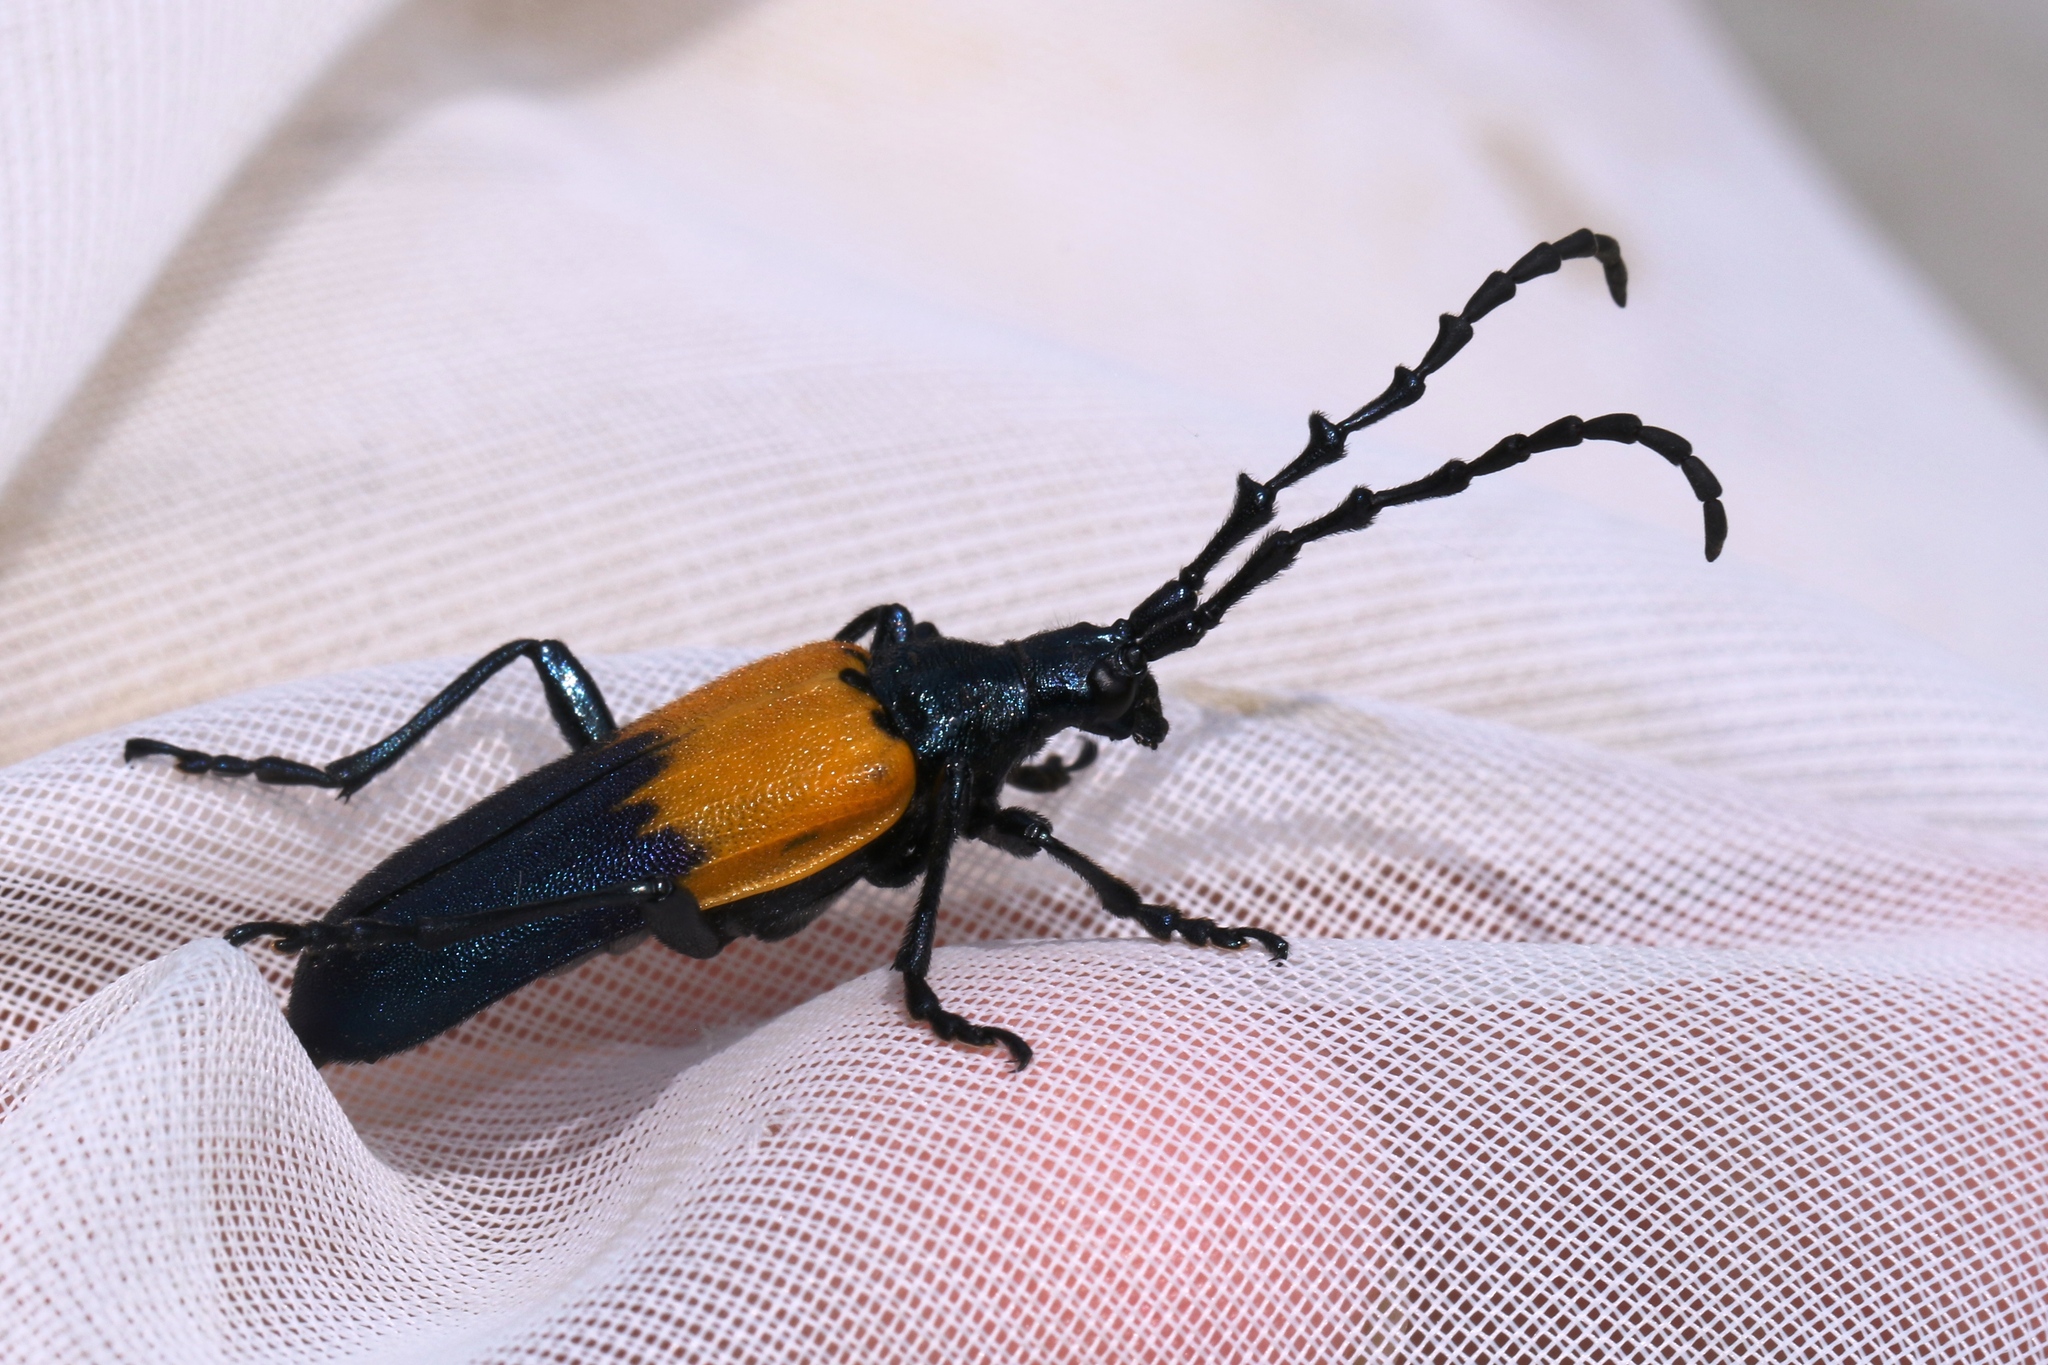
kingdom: Animalia
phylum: Arthropoda
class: Insecta
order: Coleoptera
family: Cerambycidae
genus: Desmocerus
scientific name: Desmocerus palliatus
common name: Eastern elderberry borer
